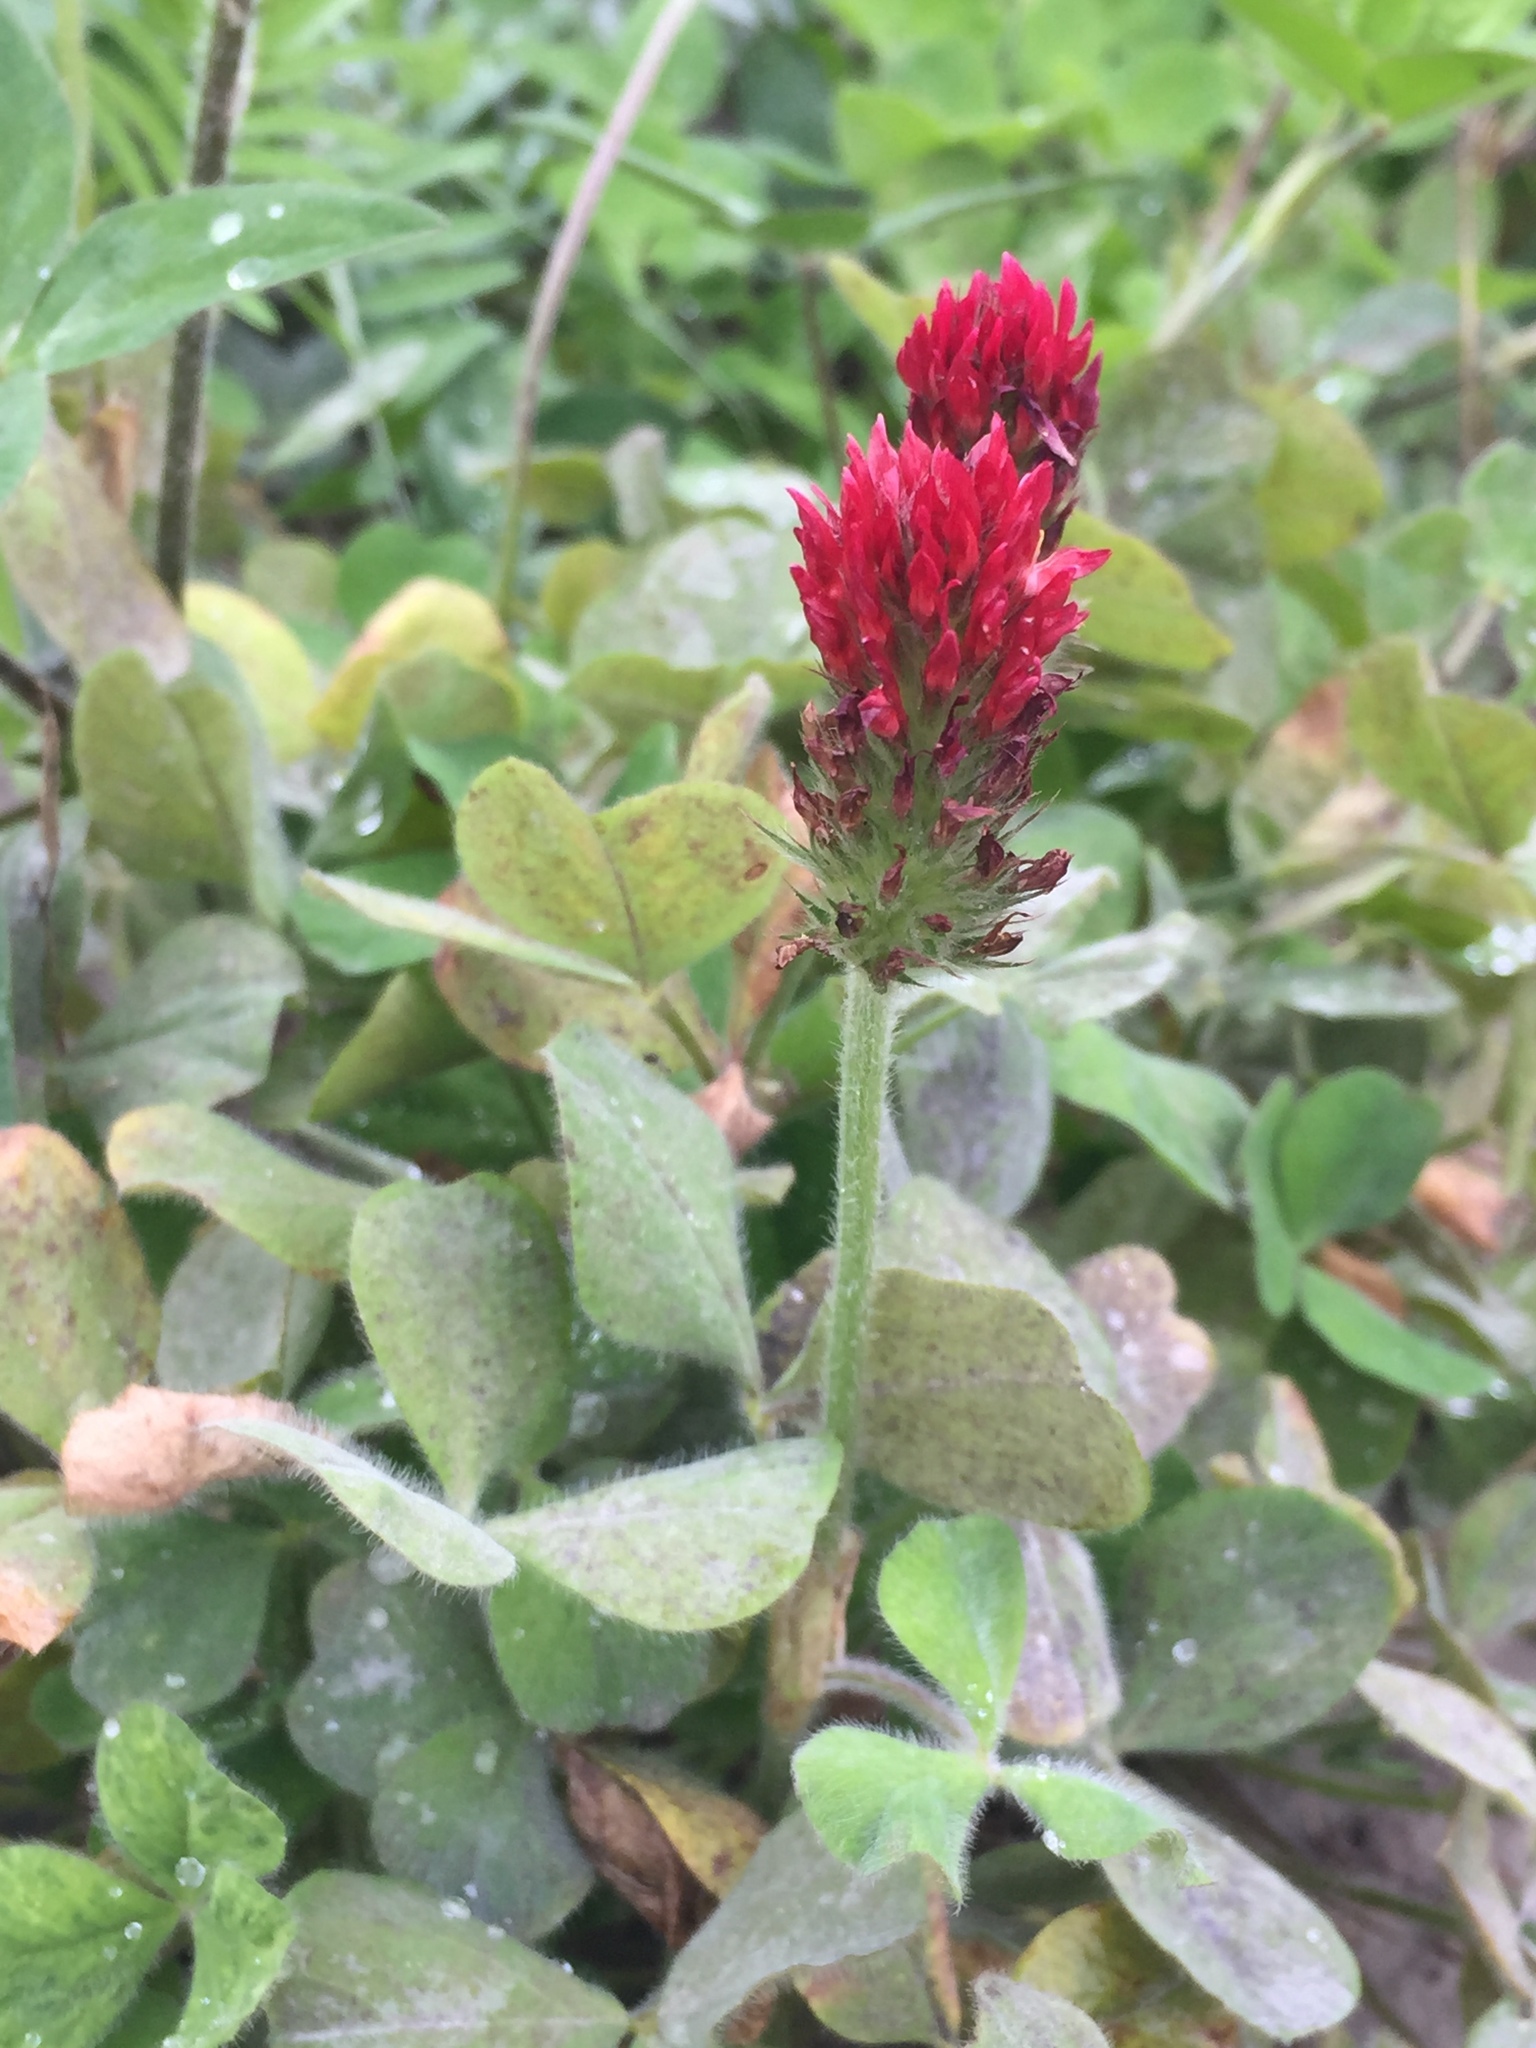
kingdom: Plantae
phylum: Tracheophyta
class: Magnoliopsida
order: Fabales
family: Fabaceae
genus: Trifolium
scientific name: Trifolium incarnatum
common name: Crimson clover
